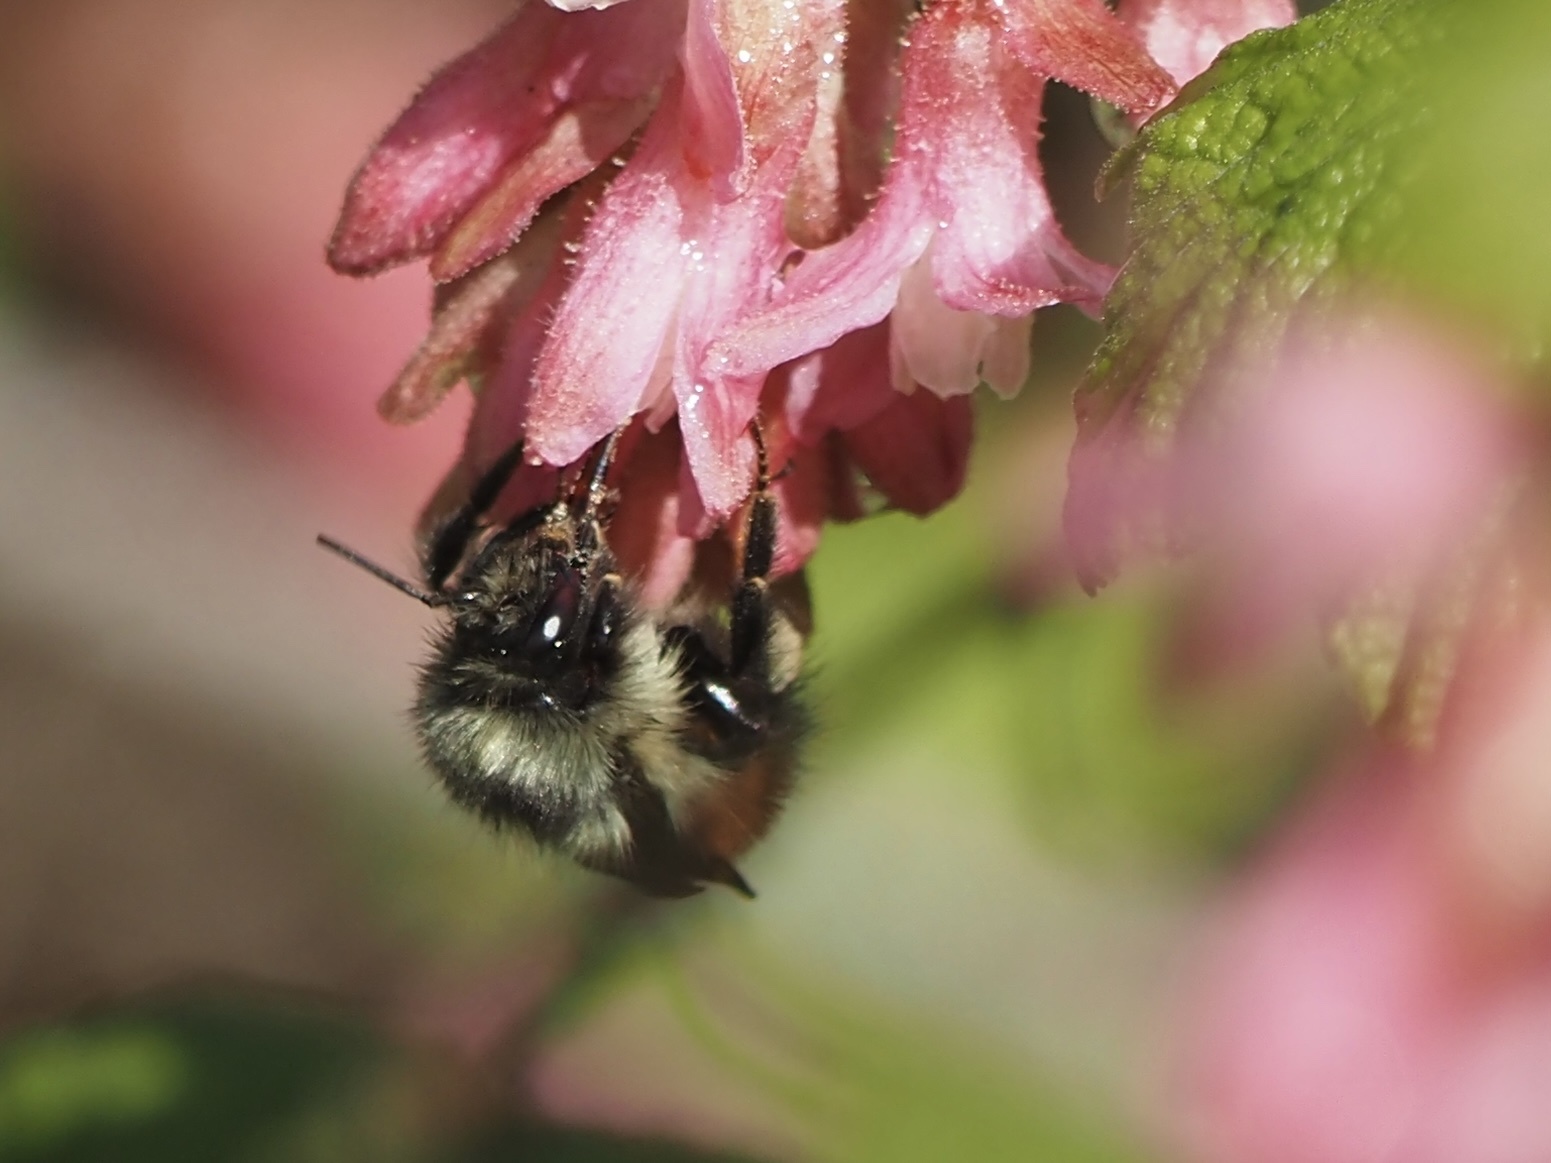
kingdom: Animalia
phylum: Arthropoda
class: Insecta
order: Hymenoptera
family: Apidae
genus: Bombus
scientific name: Bombus melanopygus
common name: Black tail bumble bee
